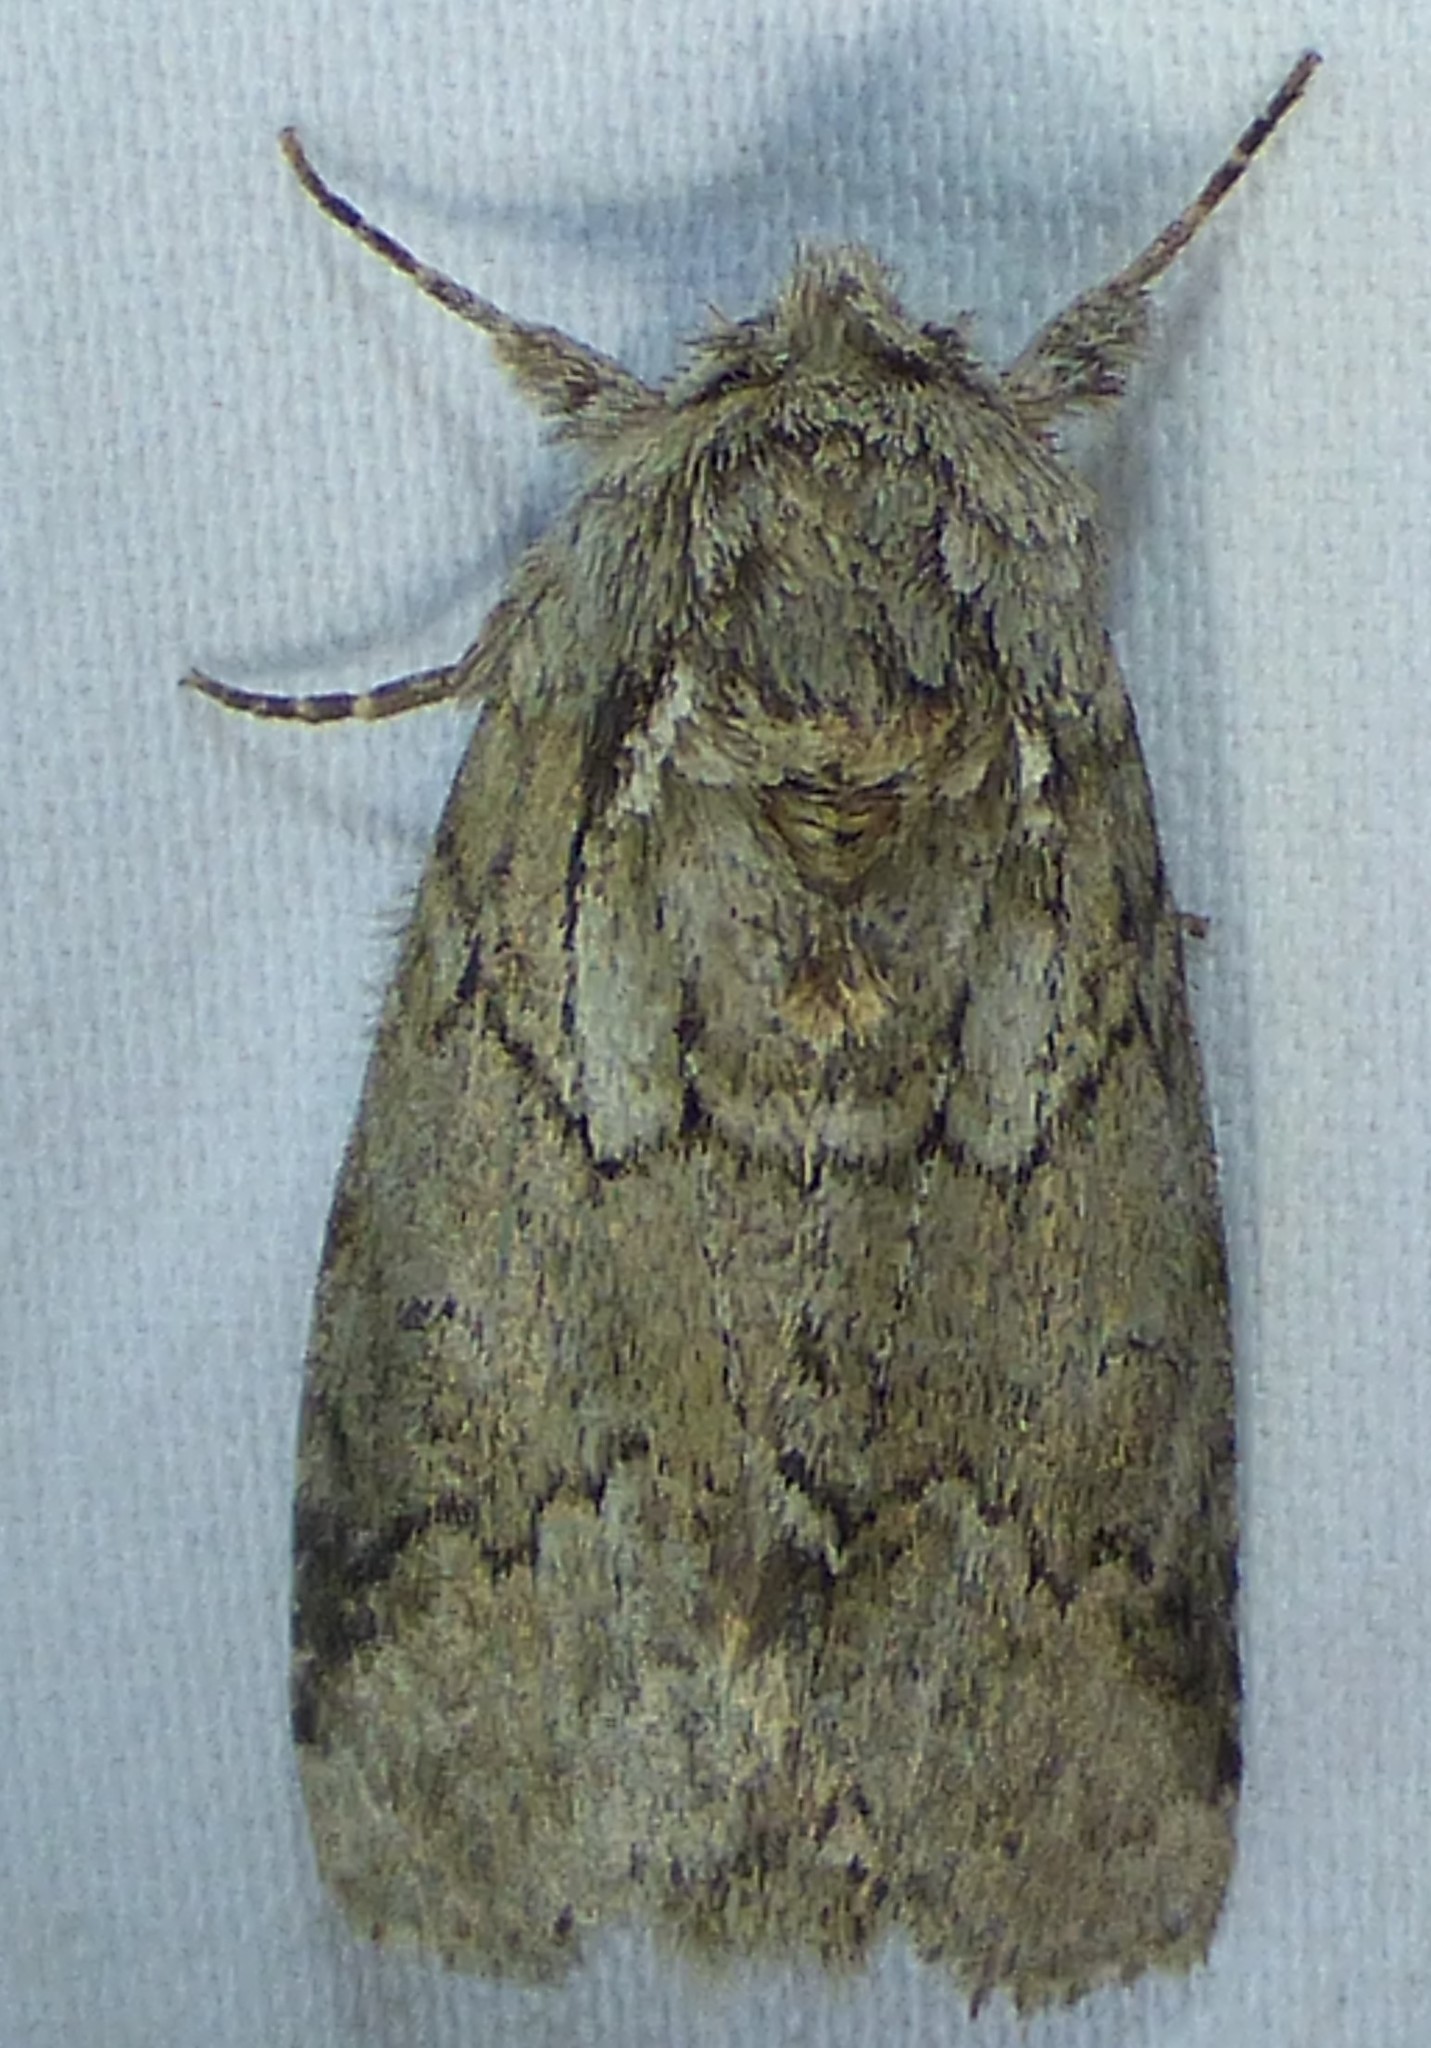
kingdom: Animalia
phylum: Arthropoda
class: Insecta
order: Lepidoptera
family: Notodontidae
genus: Lochmaeus
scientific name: Lochmaeus bilineata
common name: Double-lined prominent
